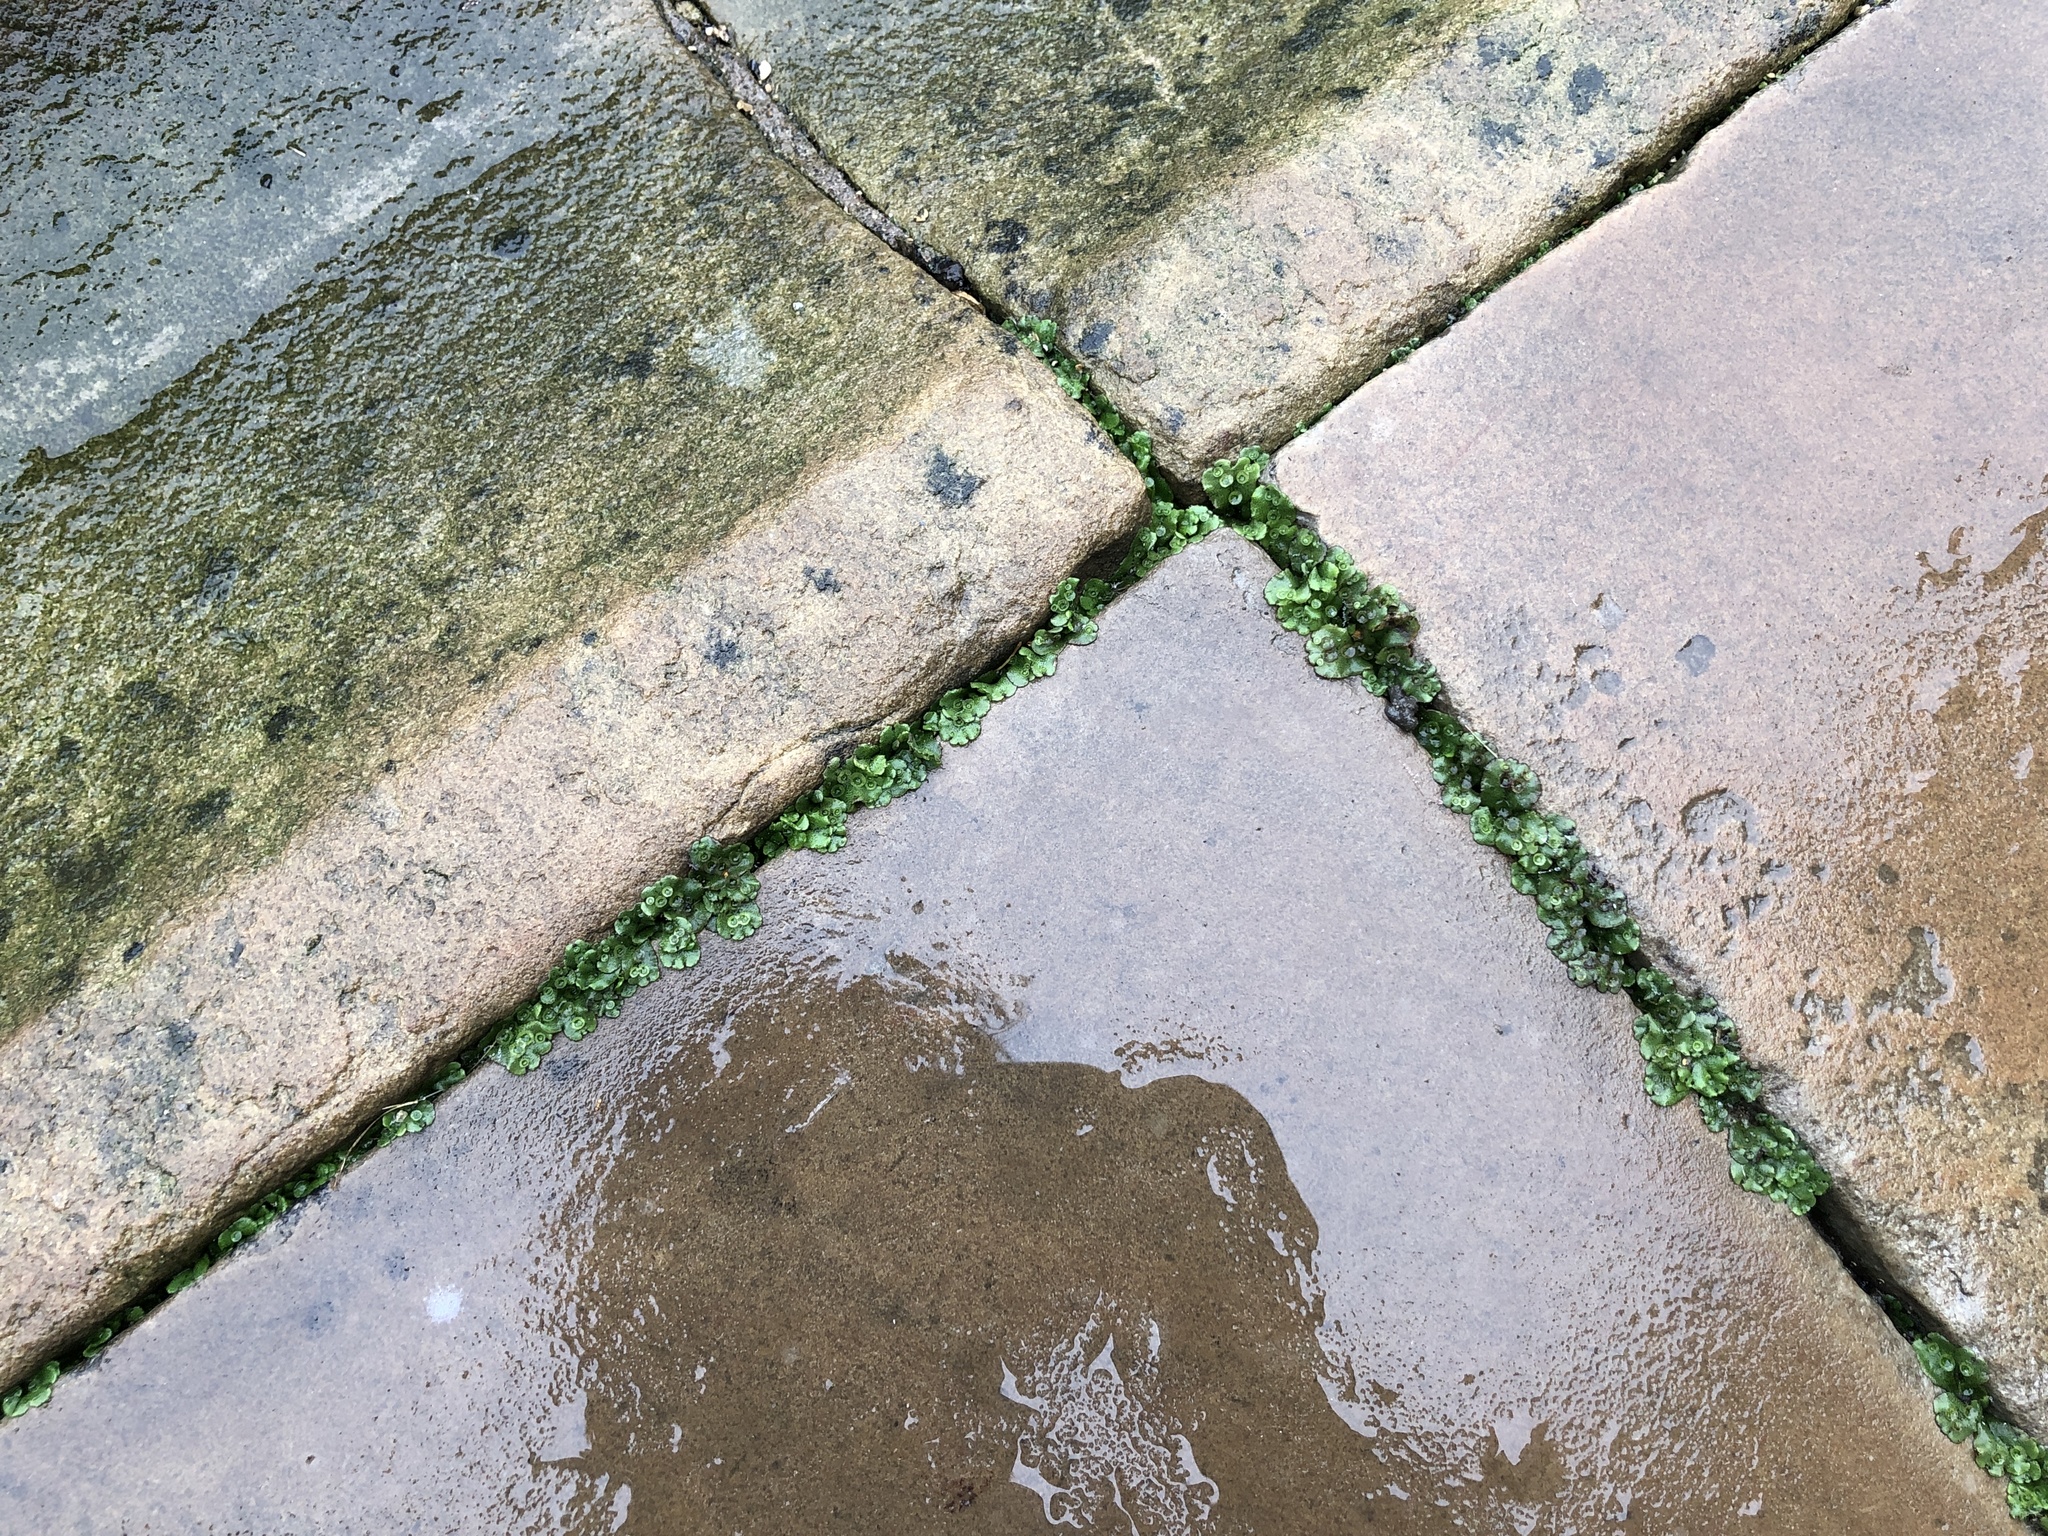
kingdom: Plantae
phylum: Marchantiophyta
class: Marchantiopsida
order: Marchantiales
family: Marchantiaceae
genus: Marchantia
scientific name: Marchantia polymorpha
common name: Common liverwort
